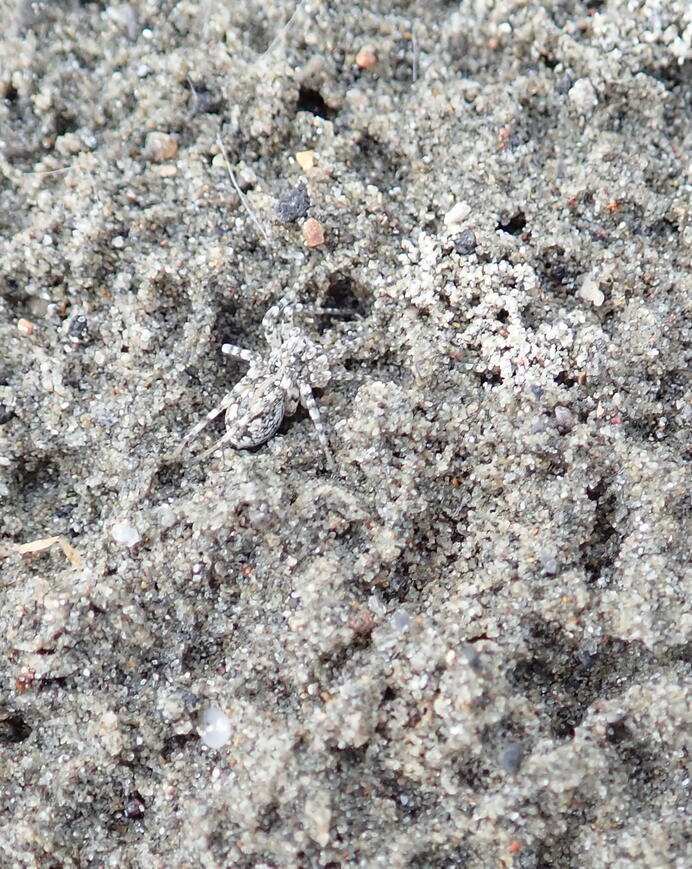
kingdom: Animalia
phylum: Arthropoda
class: Arachnida
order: Araneae
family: Lycosidae
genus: Anoteropsis
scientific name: Anoteropsis litoralis
